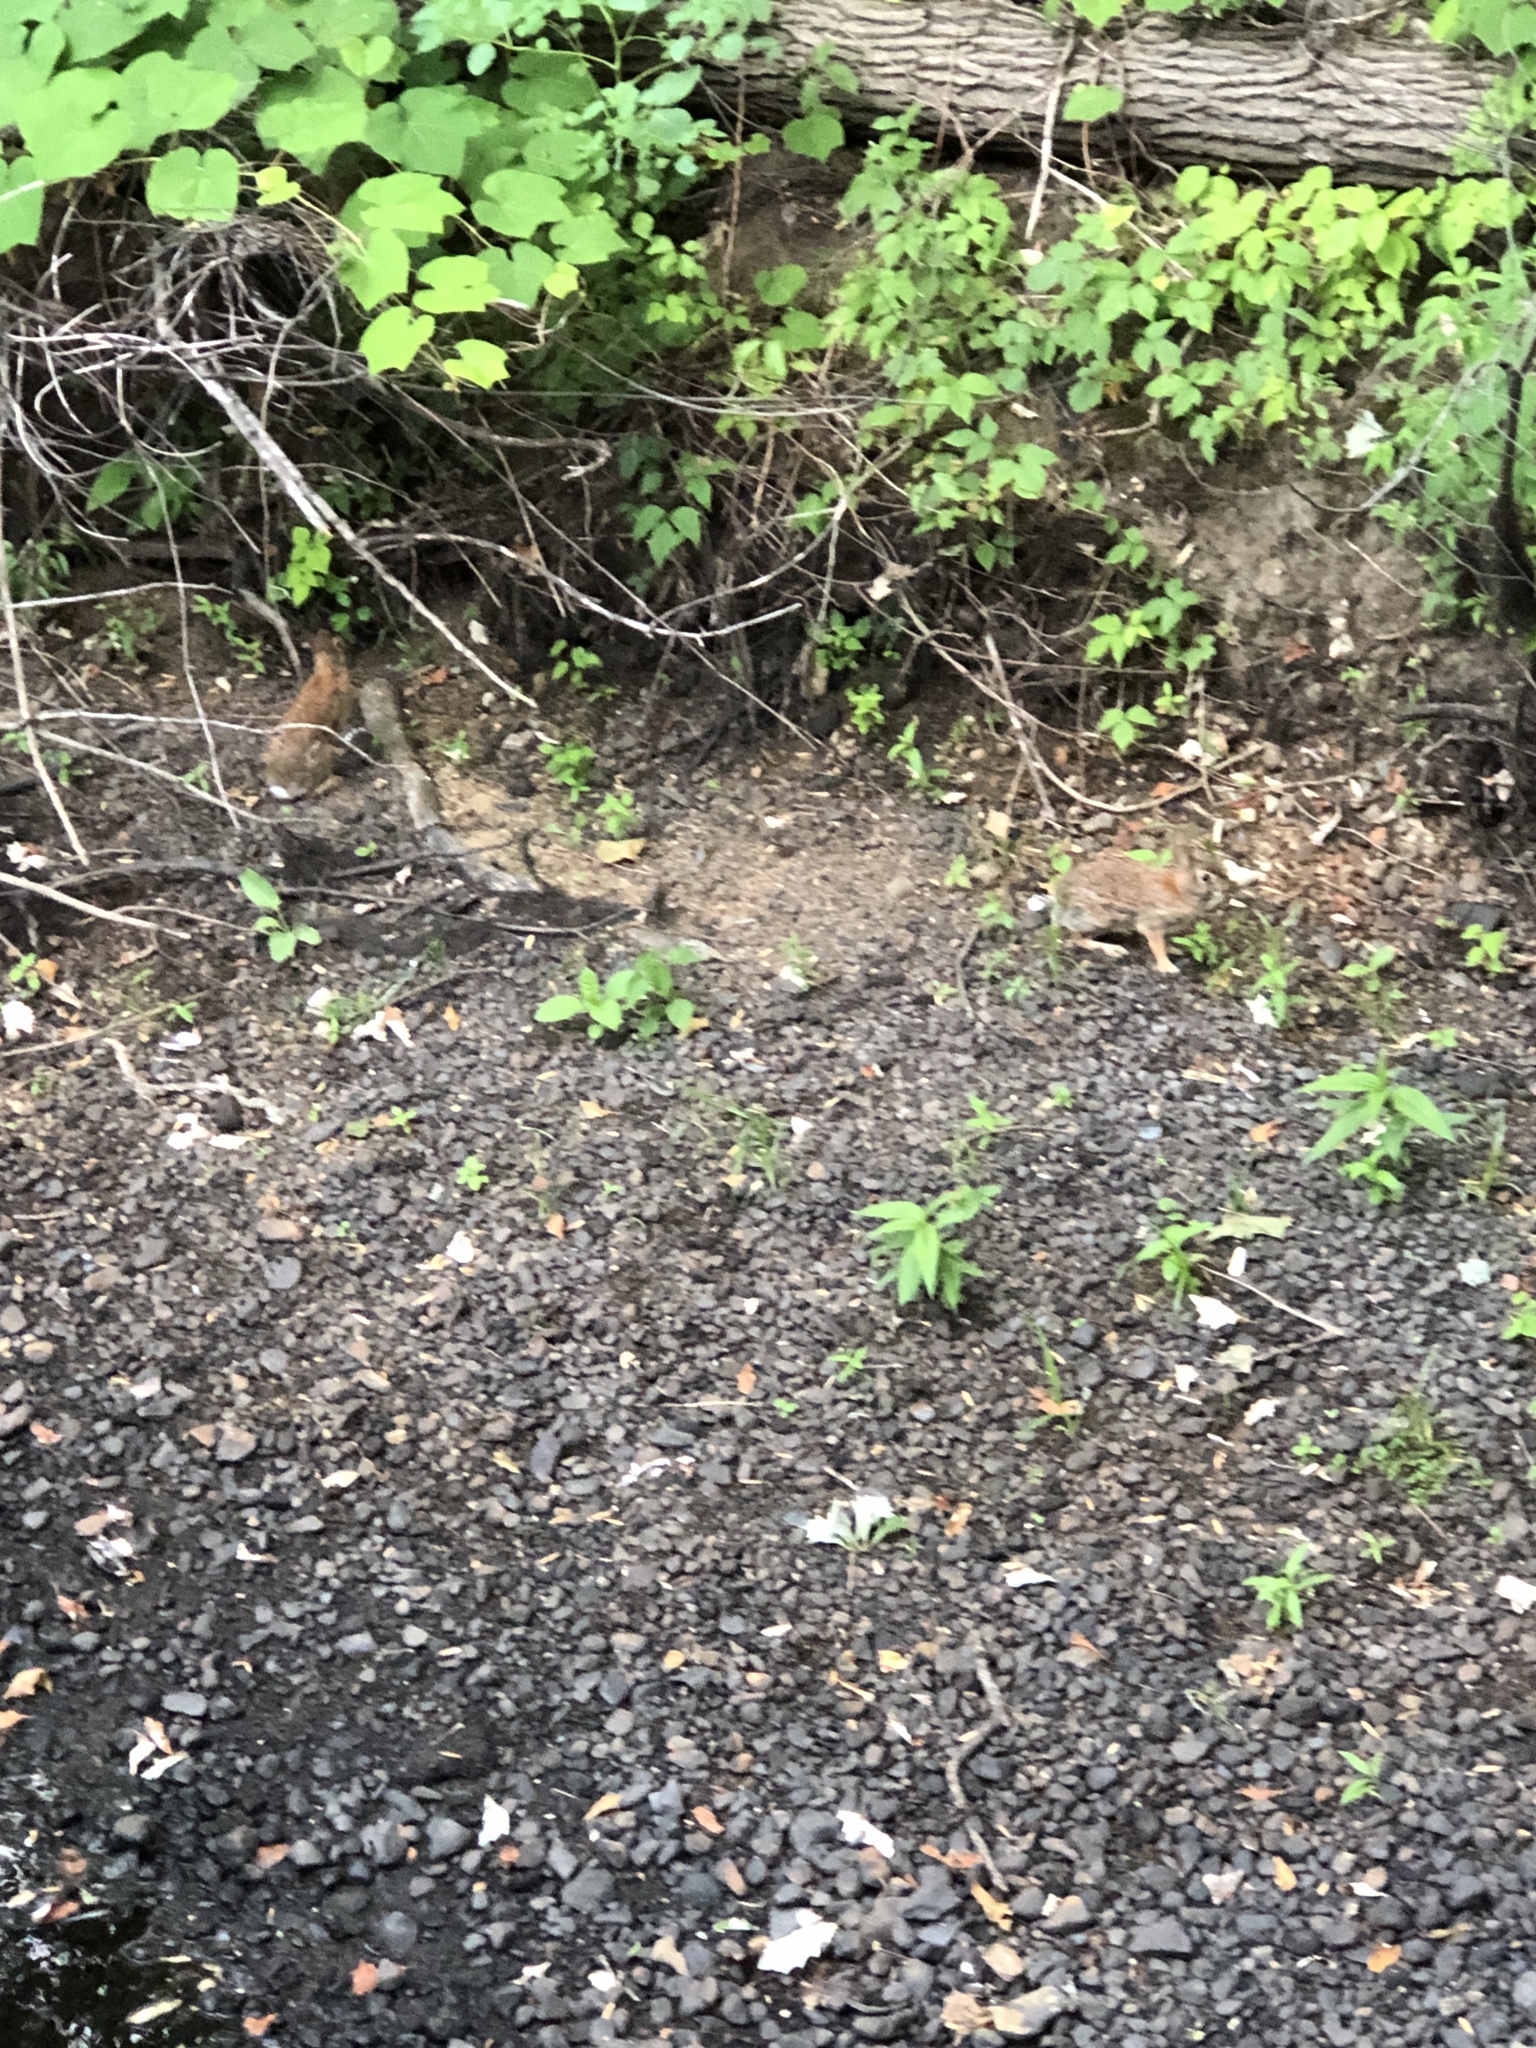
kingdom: Animalia
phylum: Chordata
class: Mammalia
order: Lagomorpha
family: Leporidae
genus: Sylvilagus
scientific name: Sylvilagus floridanus
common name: Eastern cottontail
